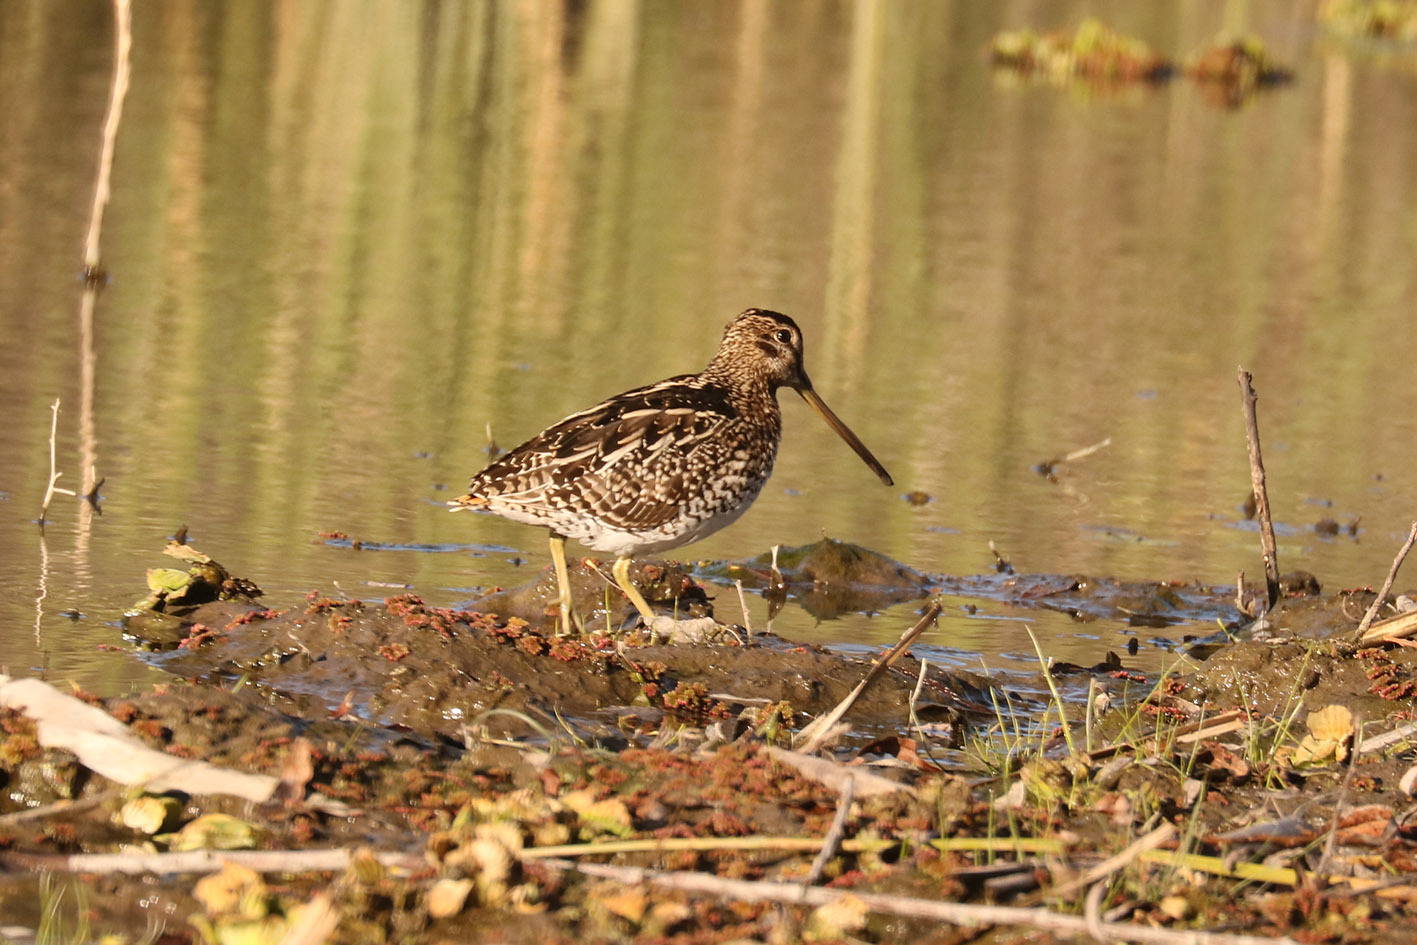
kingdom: Animalia
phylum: Chordata
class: Aves
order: Charadriiformes
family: Scolopacidae
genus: Gallinago
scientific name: Gallinago paraguaiae
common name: South american snipe
